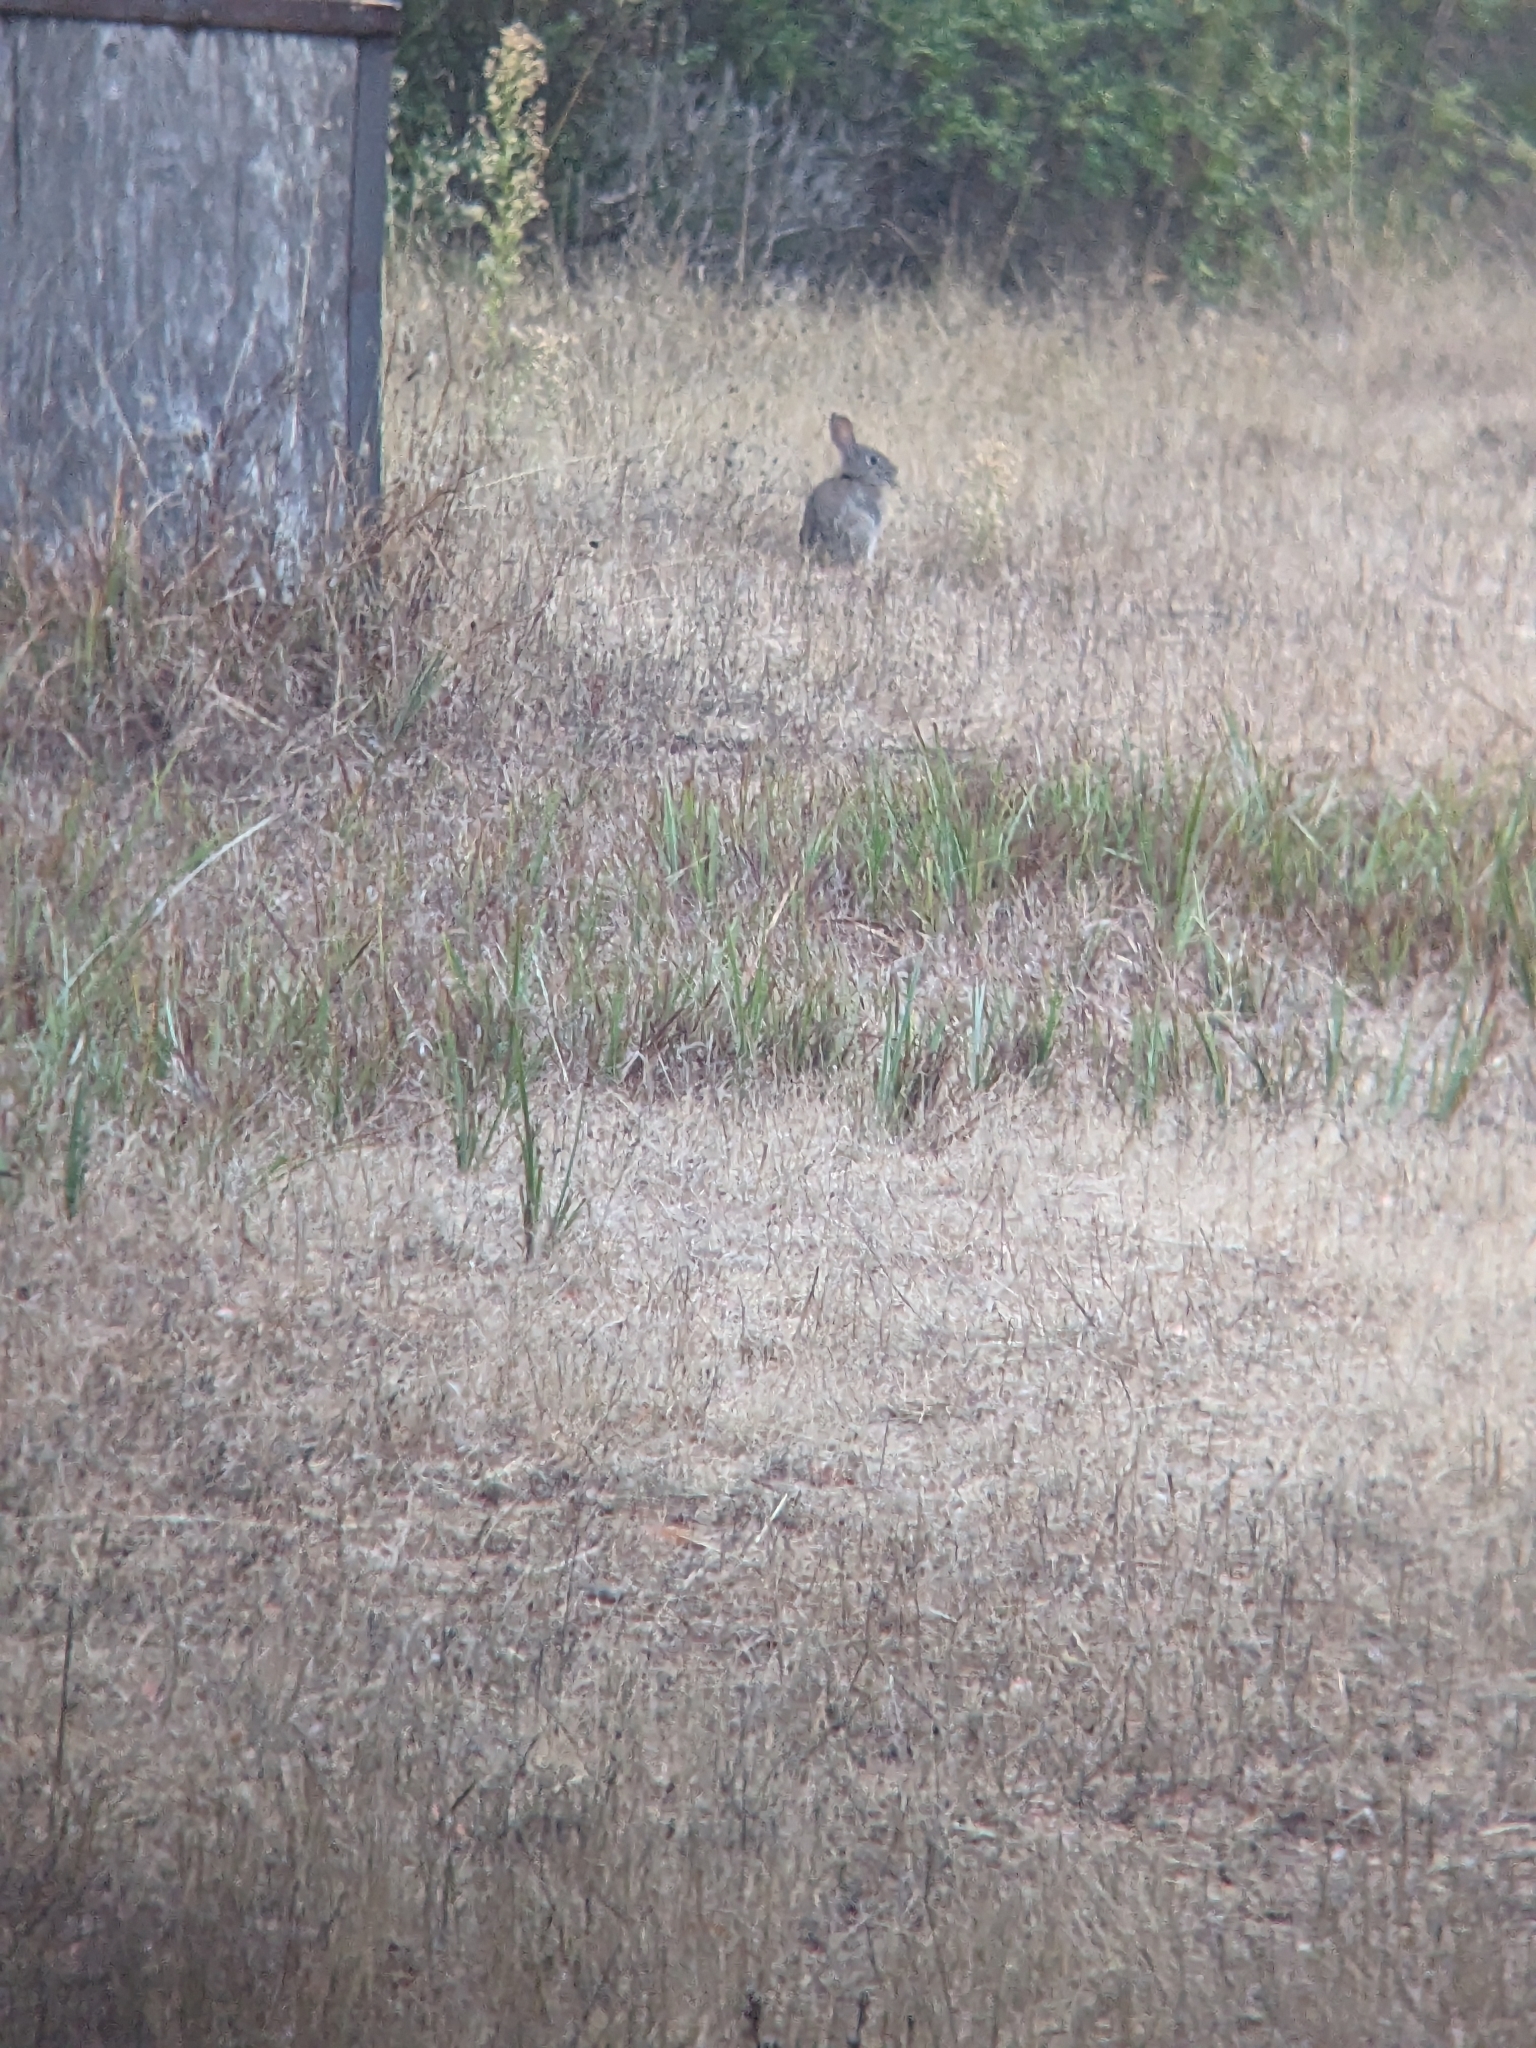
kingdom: Animalia
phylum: Chordata
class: Mammalia
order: Lagomorpha
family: Leporidae
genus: Sylvilagus
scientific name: Sylvilagus bachmani
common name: Brush rabbit
